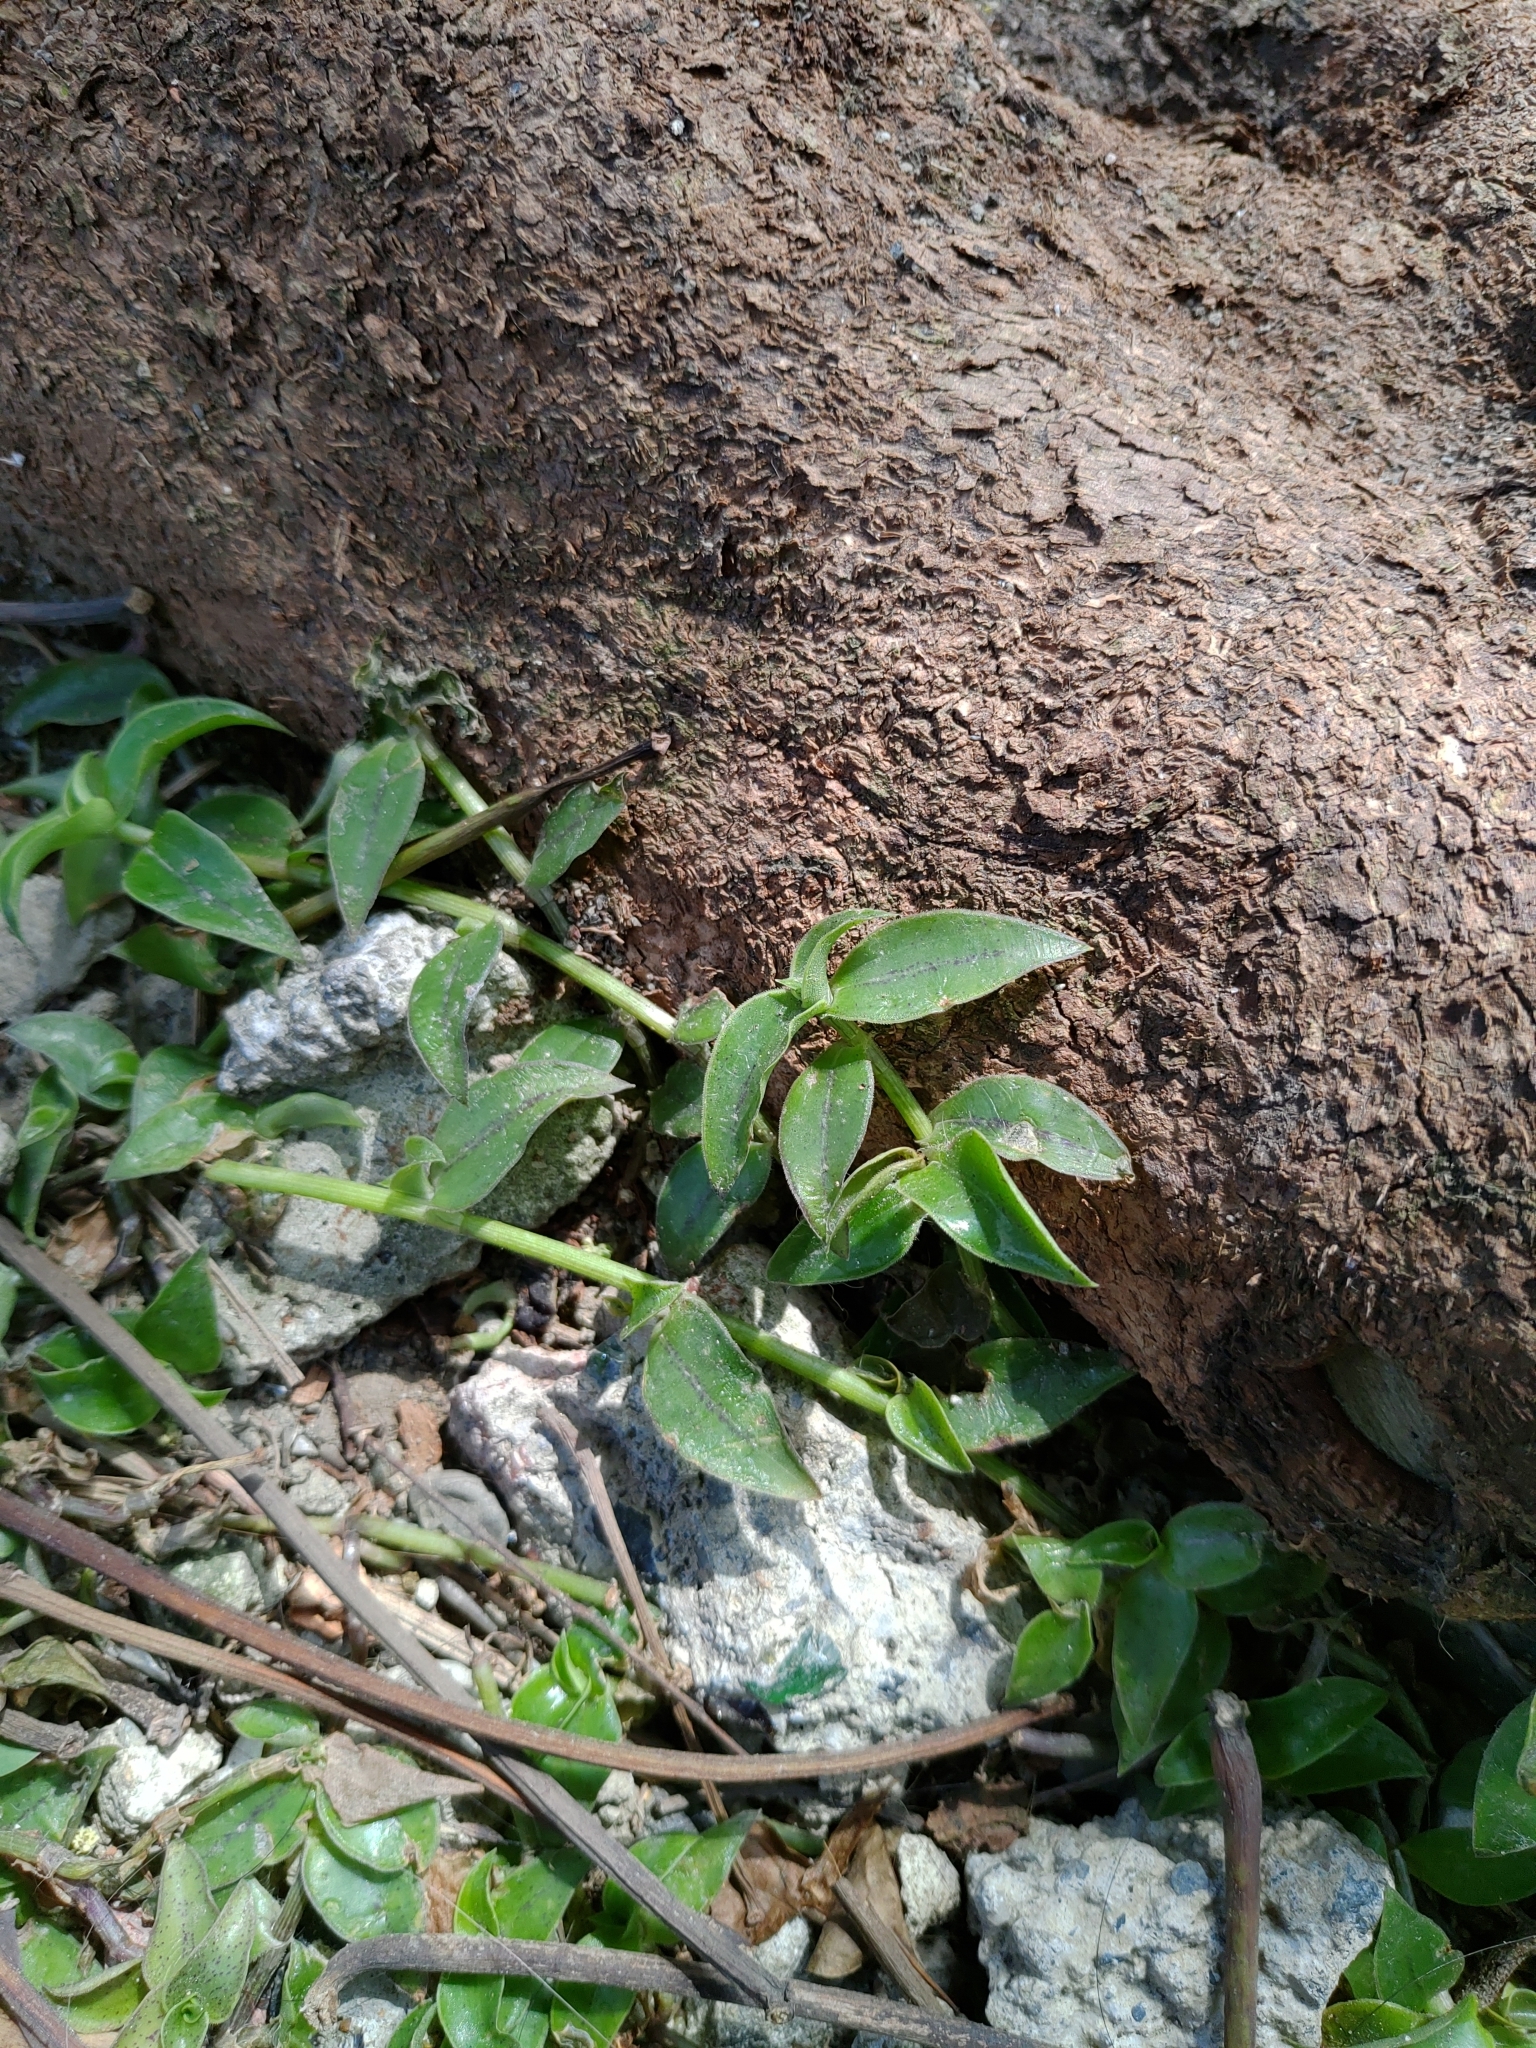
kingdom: Plantae
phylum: Tracheophyta
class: Liliopsida
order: Commelinales
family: Commelinaceae
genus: Callisia
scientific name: Callisia repens
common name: Creeping inchplant
